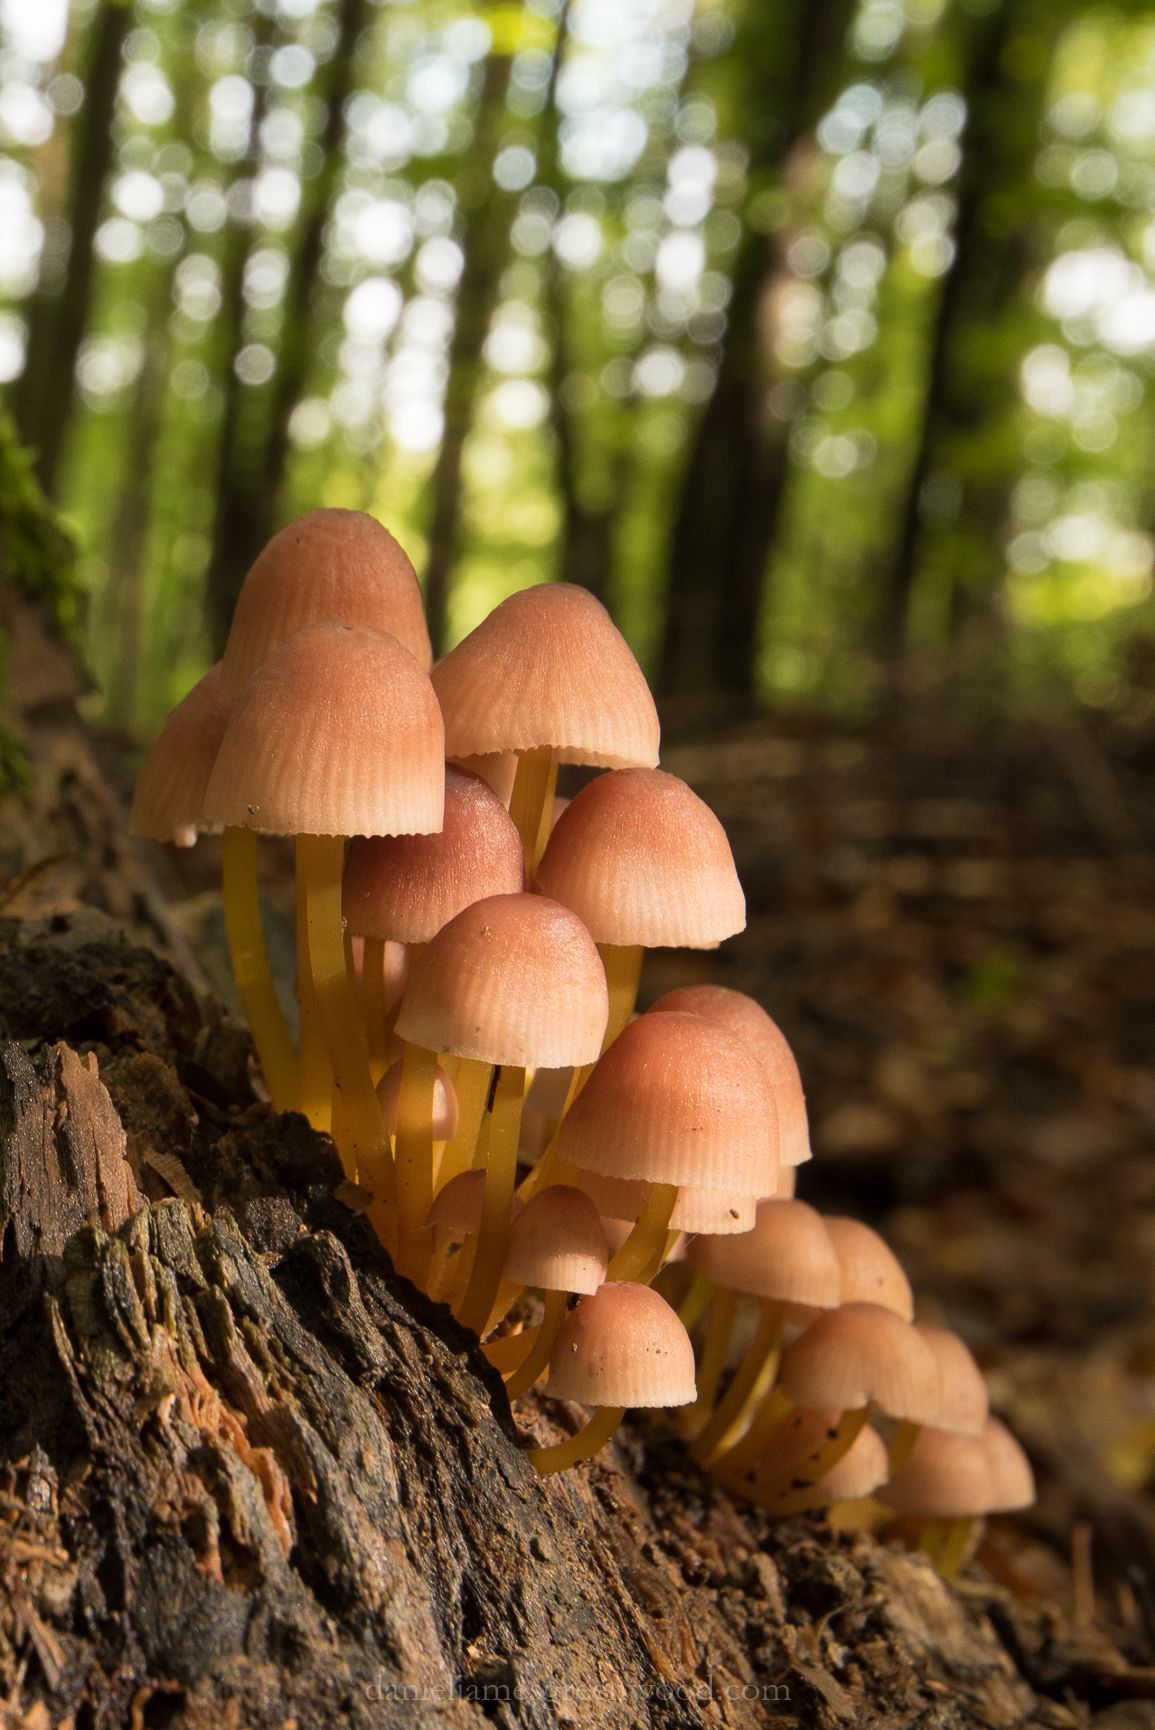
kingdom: Fungi
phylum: Basidiomycota
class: Agaricomycetes
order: Agaricales
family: Mycenaceae
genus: Mycena
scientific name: Mycena renati
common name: Beautiful bonnet
